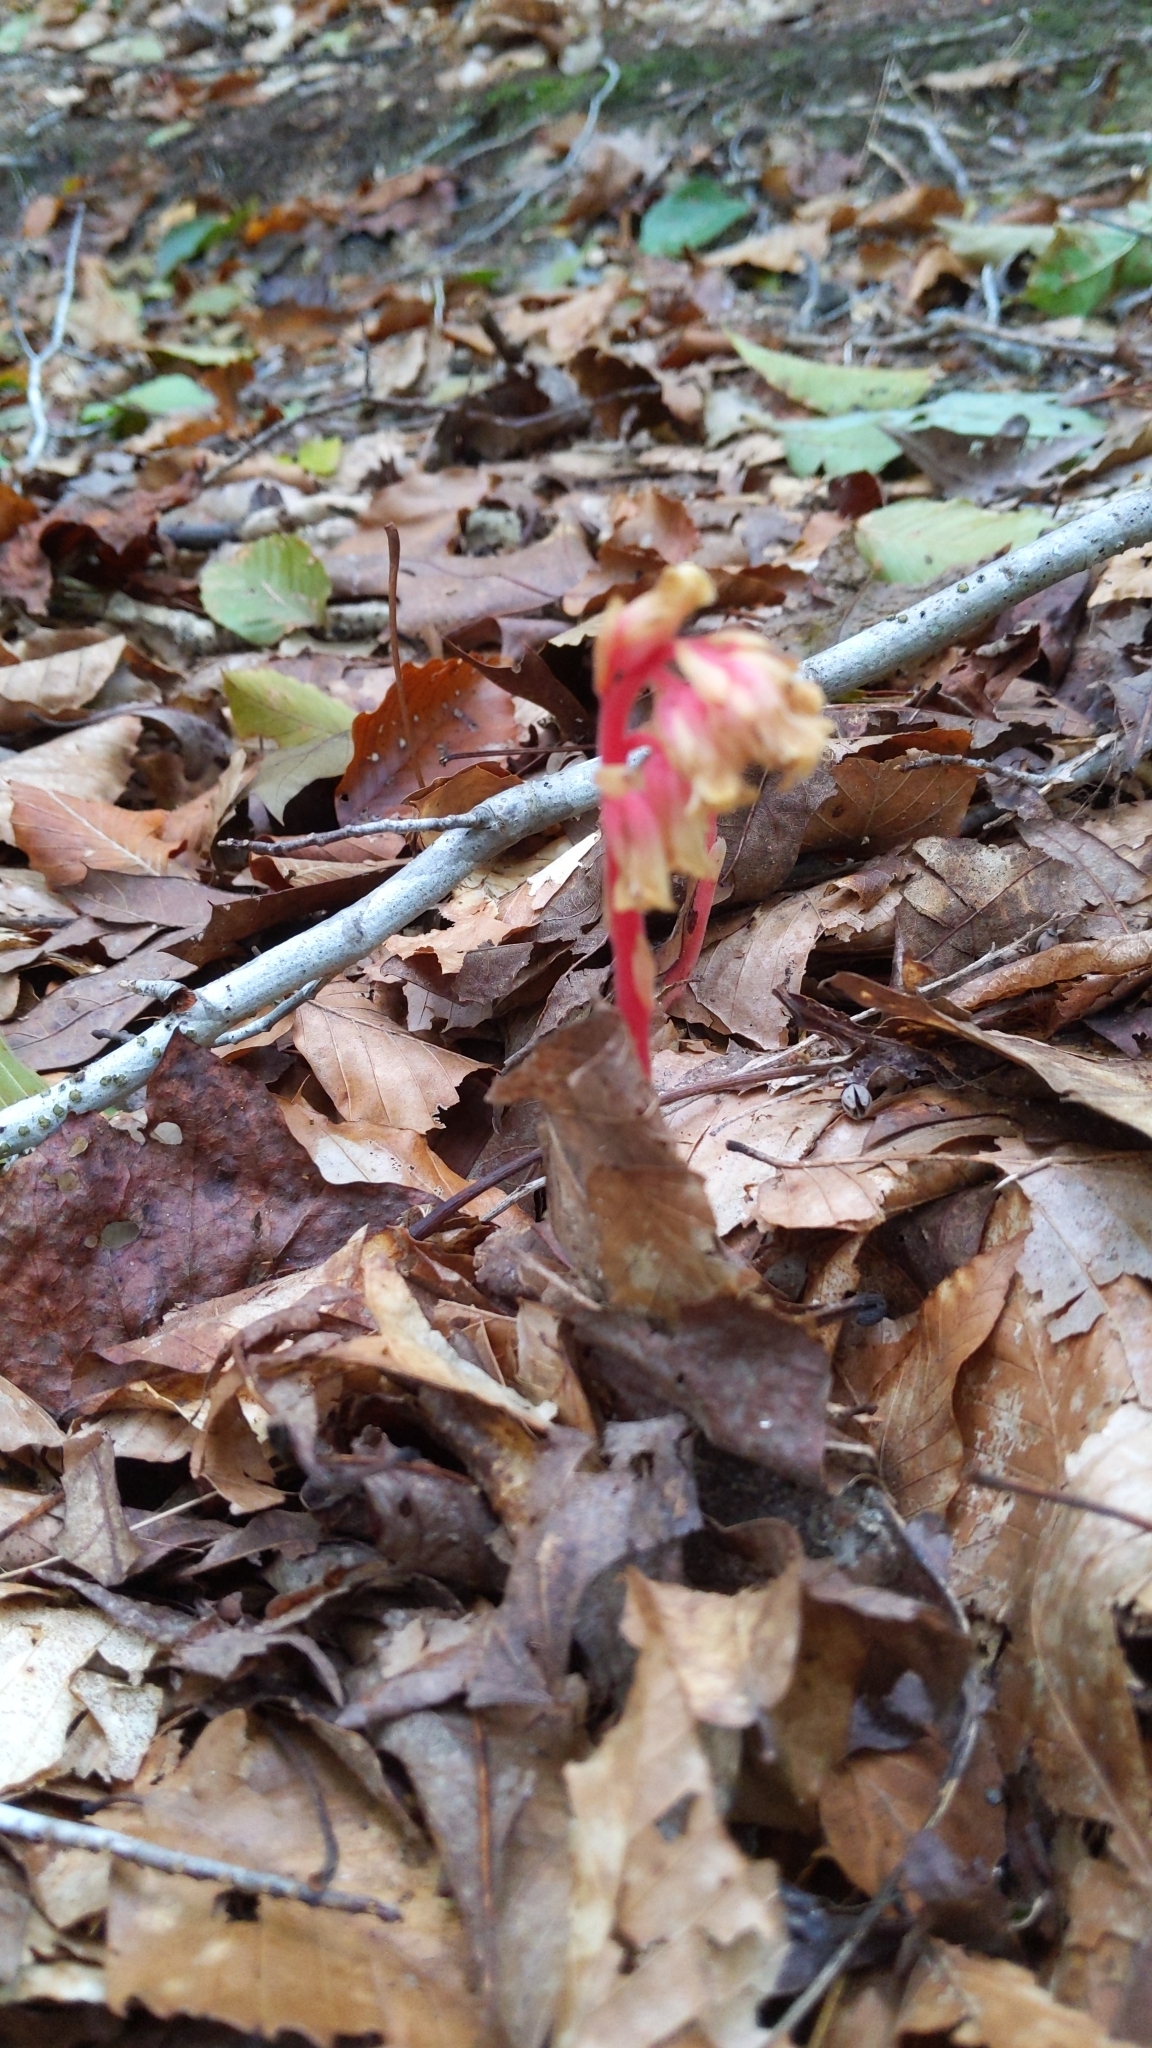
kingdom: Plantae
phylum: Tracheophyta
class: Magnoliopsida
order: Ericales
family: Ericaceae
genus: Hypopitys
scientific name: Hypopitys monotropa
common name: Yellow bird's-nest
